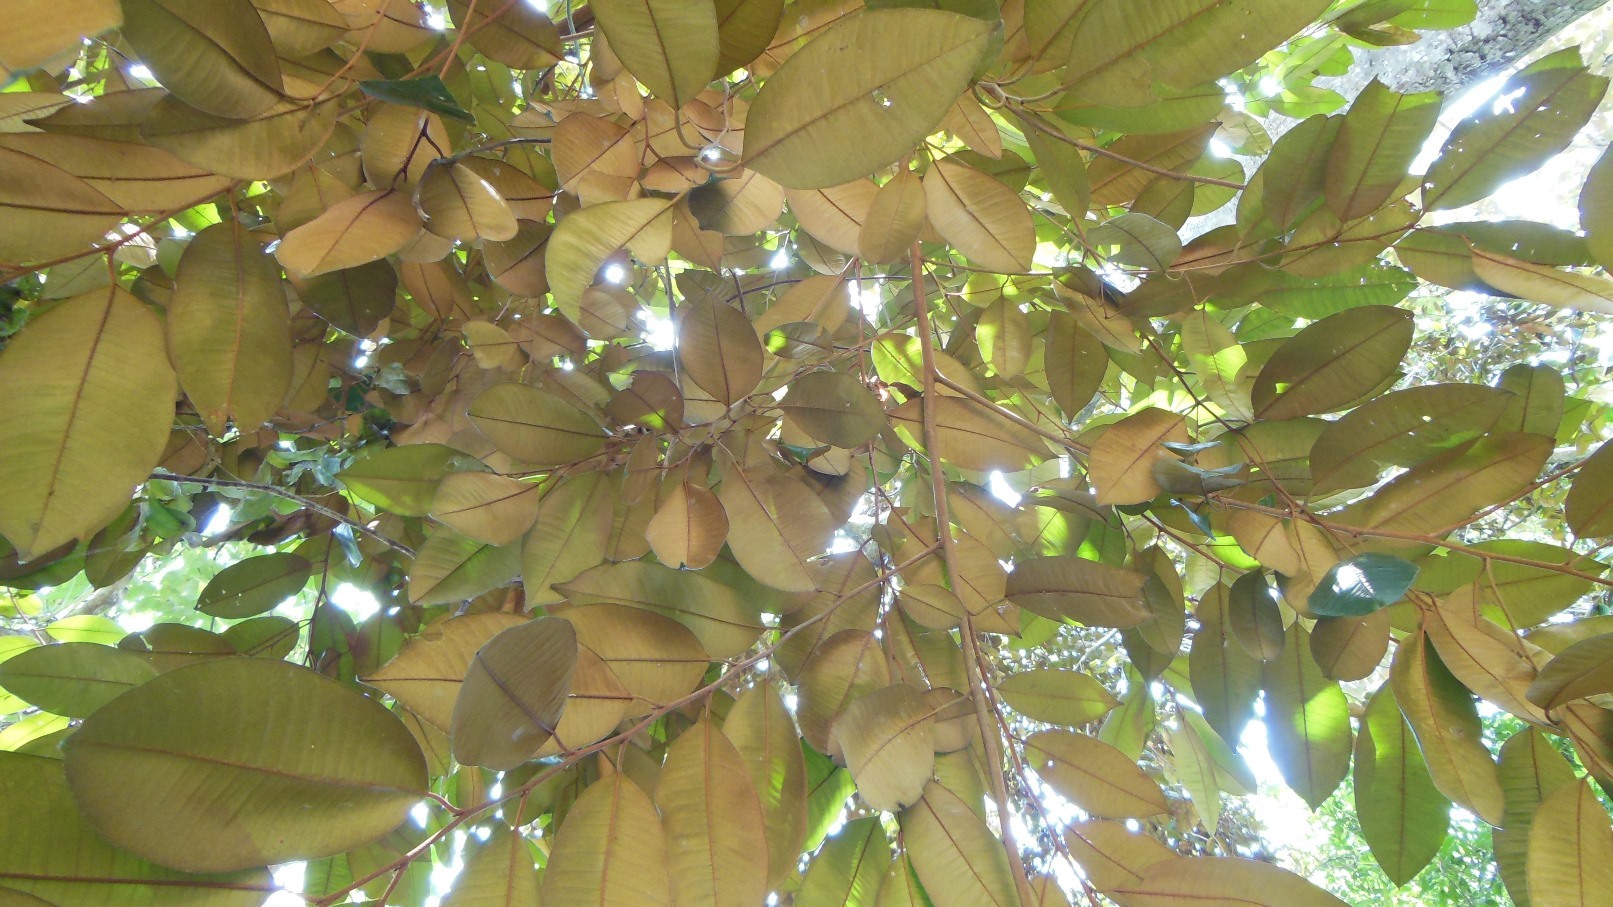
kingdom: Plantae
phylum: Tracheophyta
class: Magnoliopsida
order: Ericales
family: Sapotaceae
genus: Chrysophyllum
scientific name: Chrysophyllum mexicanum
